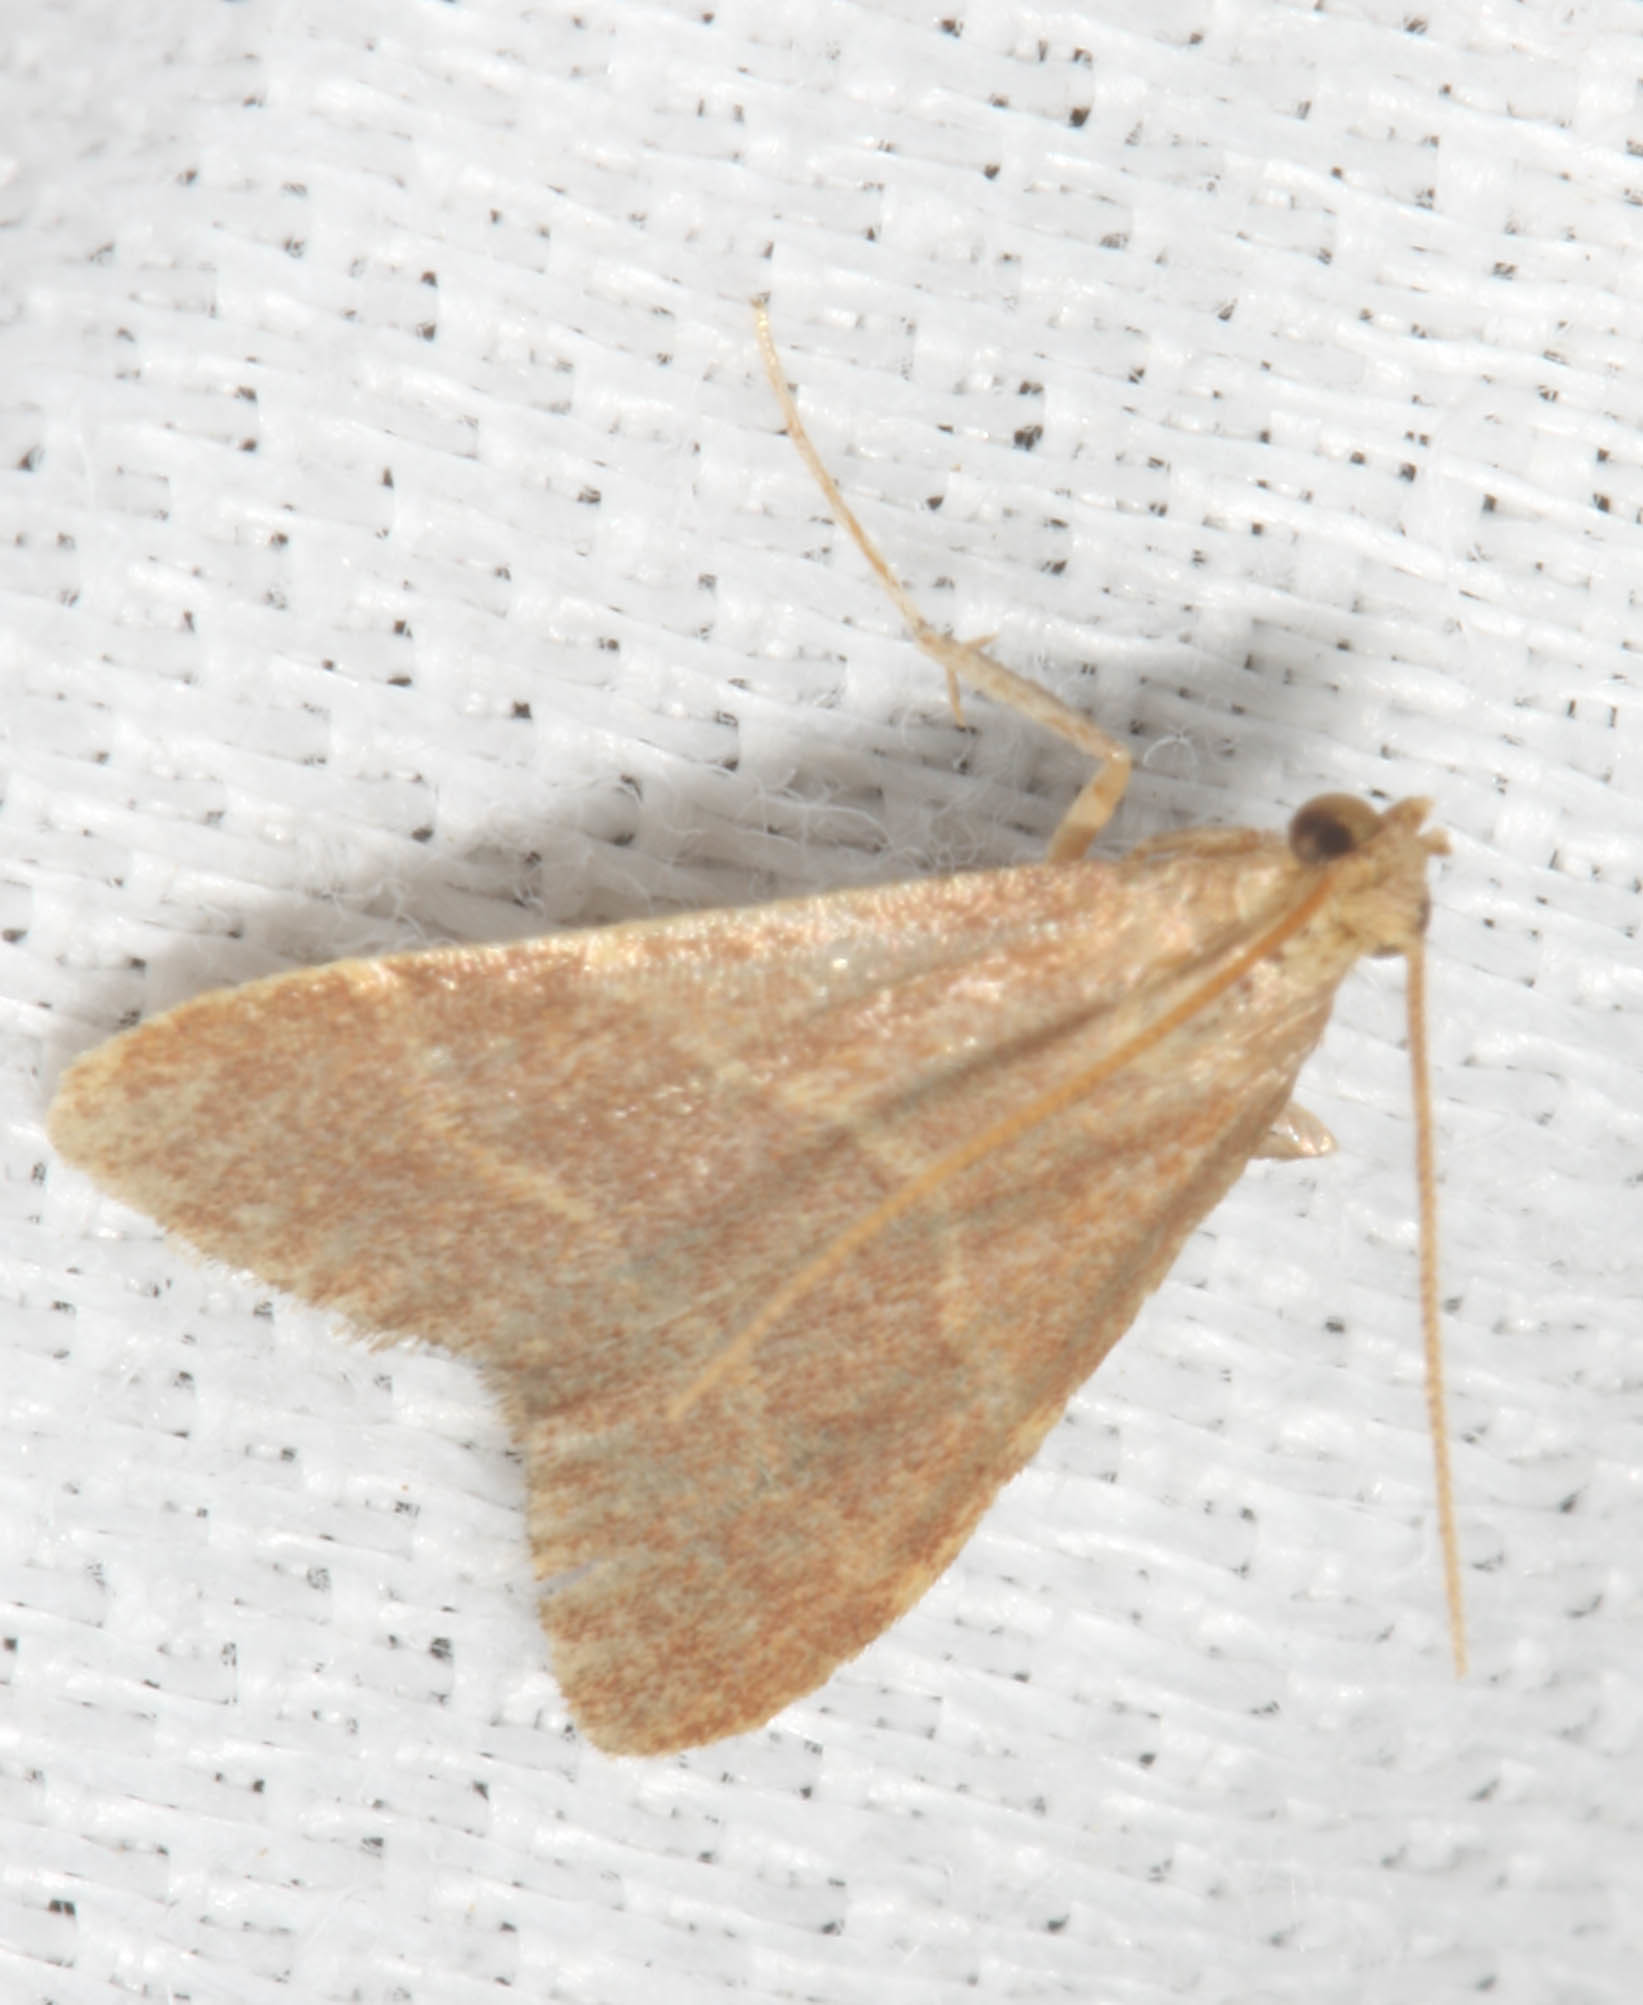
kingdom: Animalia
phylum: Arthropoda
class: Insecta
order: Lepidoptera
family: Pyralidae
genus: Arta
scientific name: Arta epicoenalis
